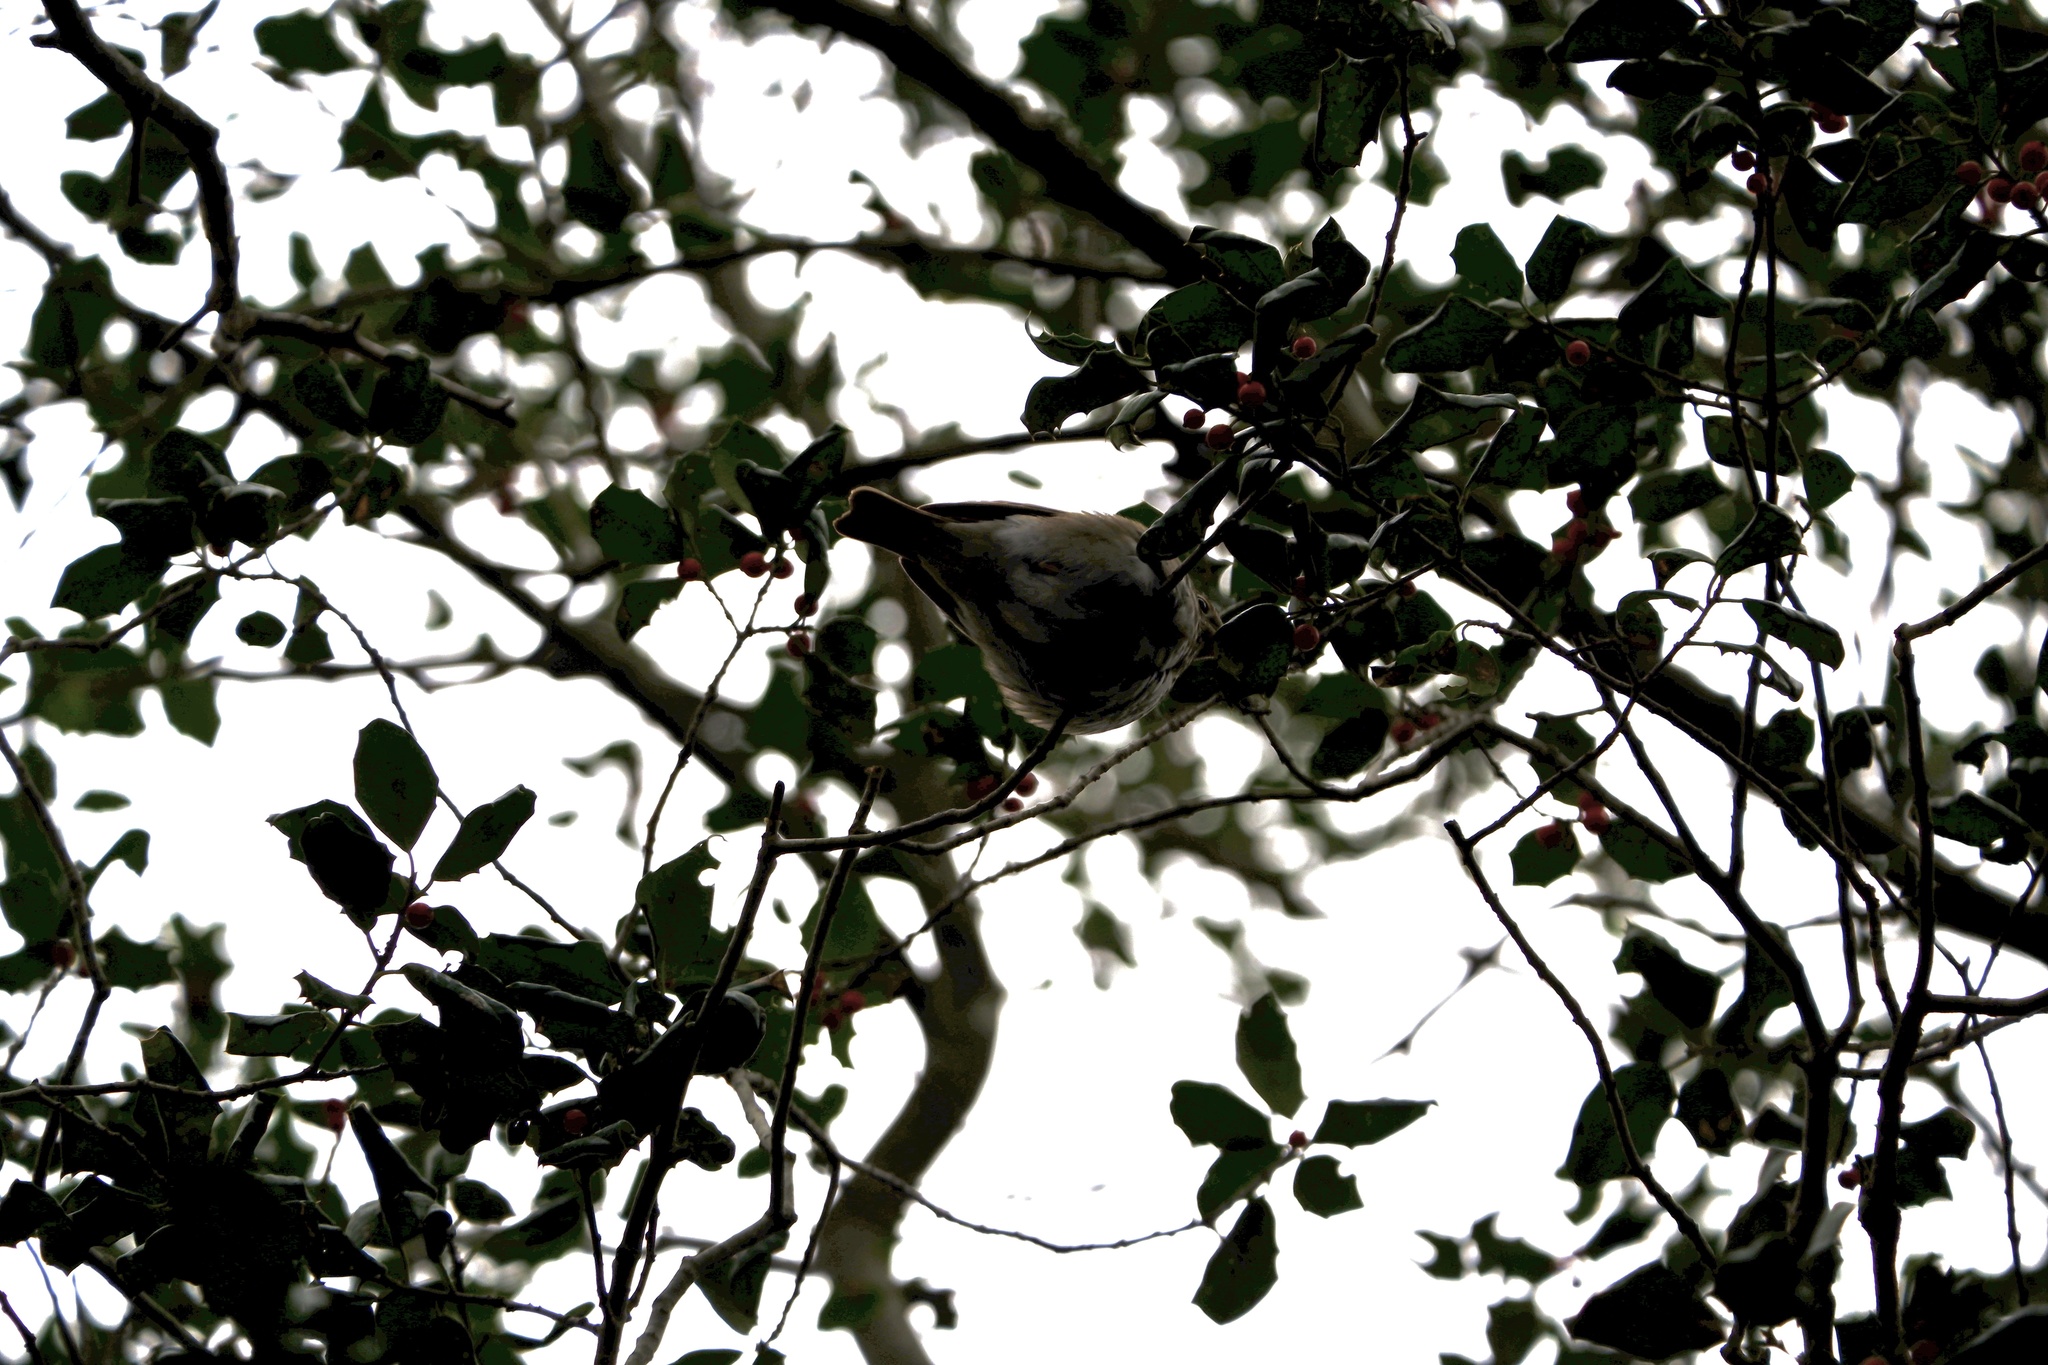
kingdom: Animalia
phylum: Chordata
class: Aves
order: Passeriformes
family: Turdidae
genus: Catharus
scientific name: Catharus guttatus
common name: Hermit thrush
